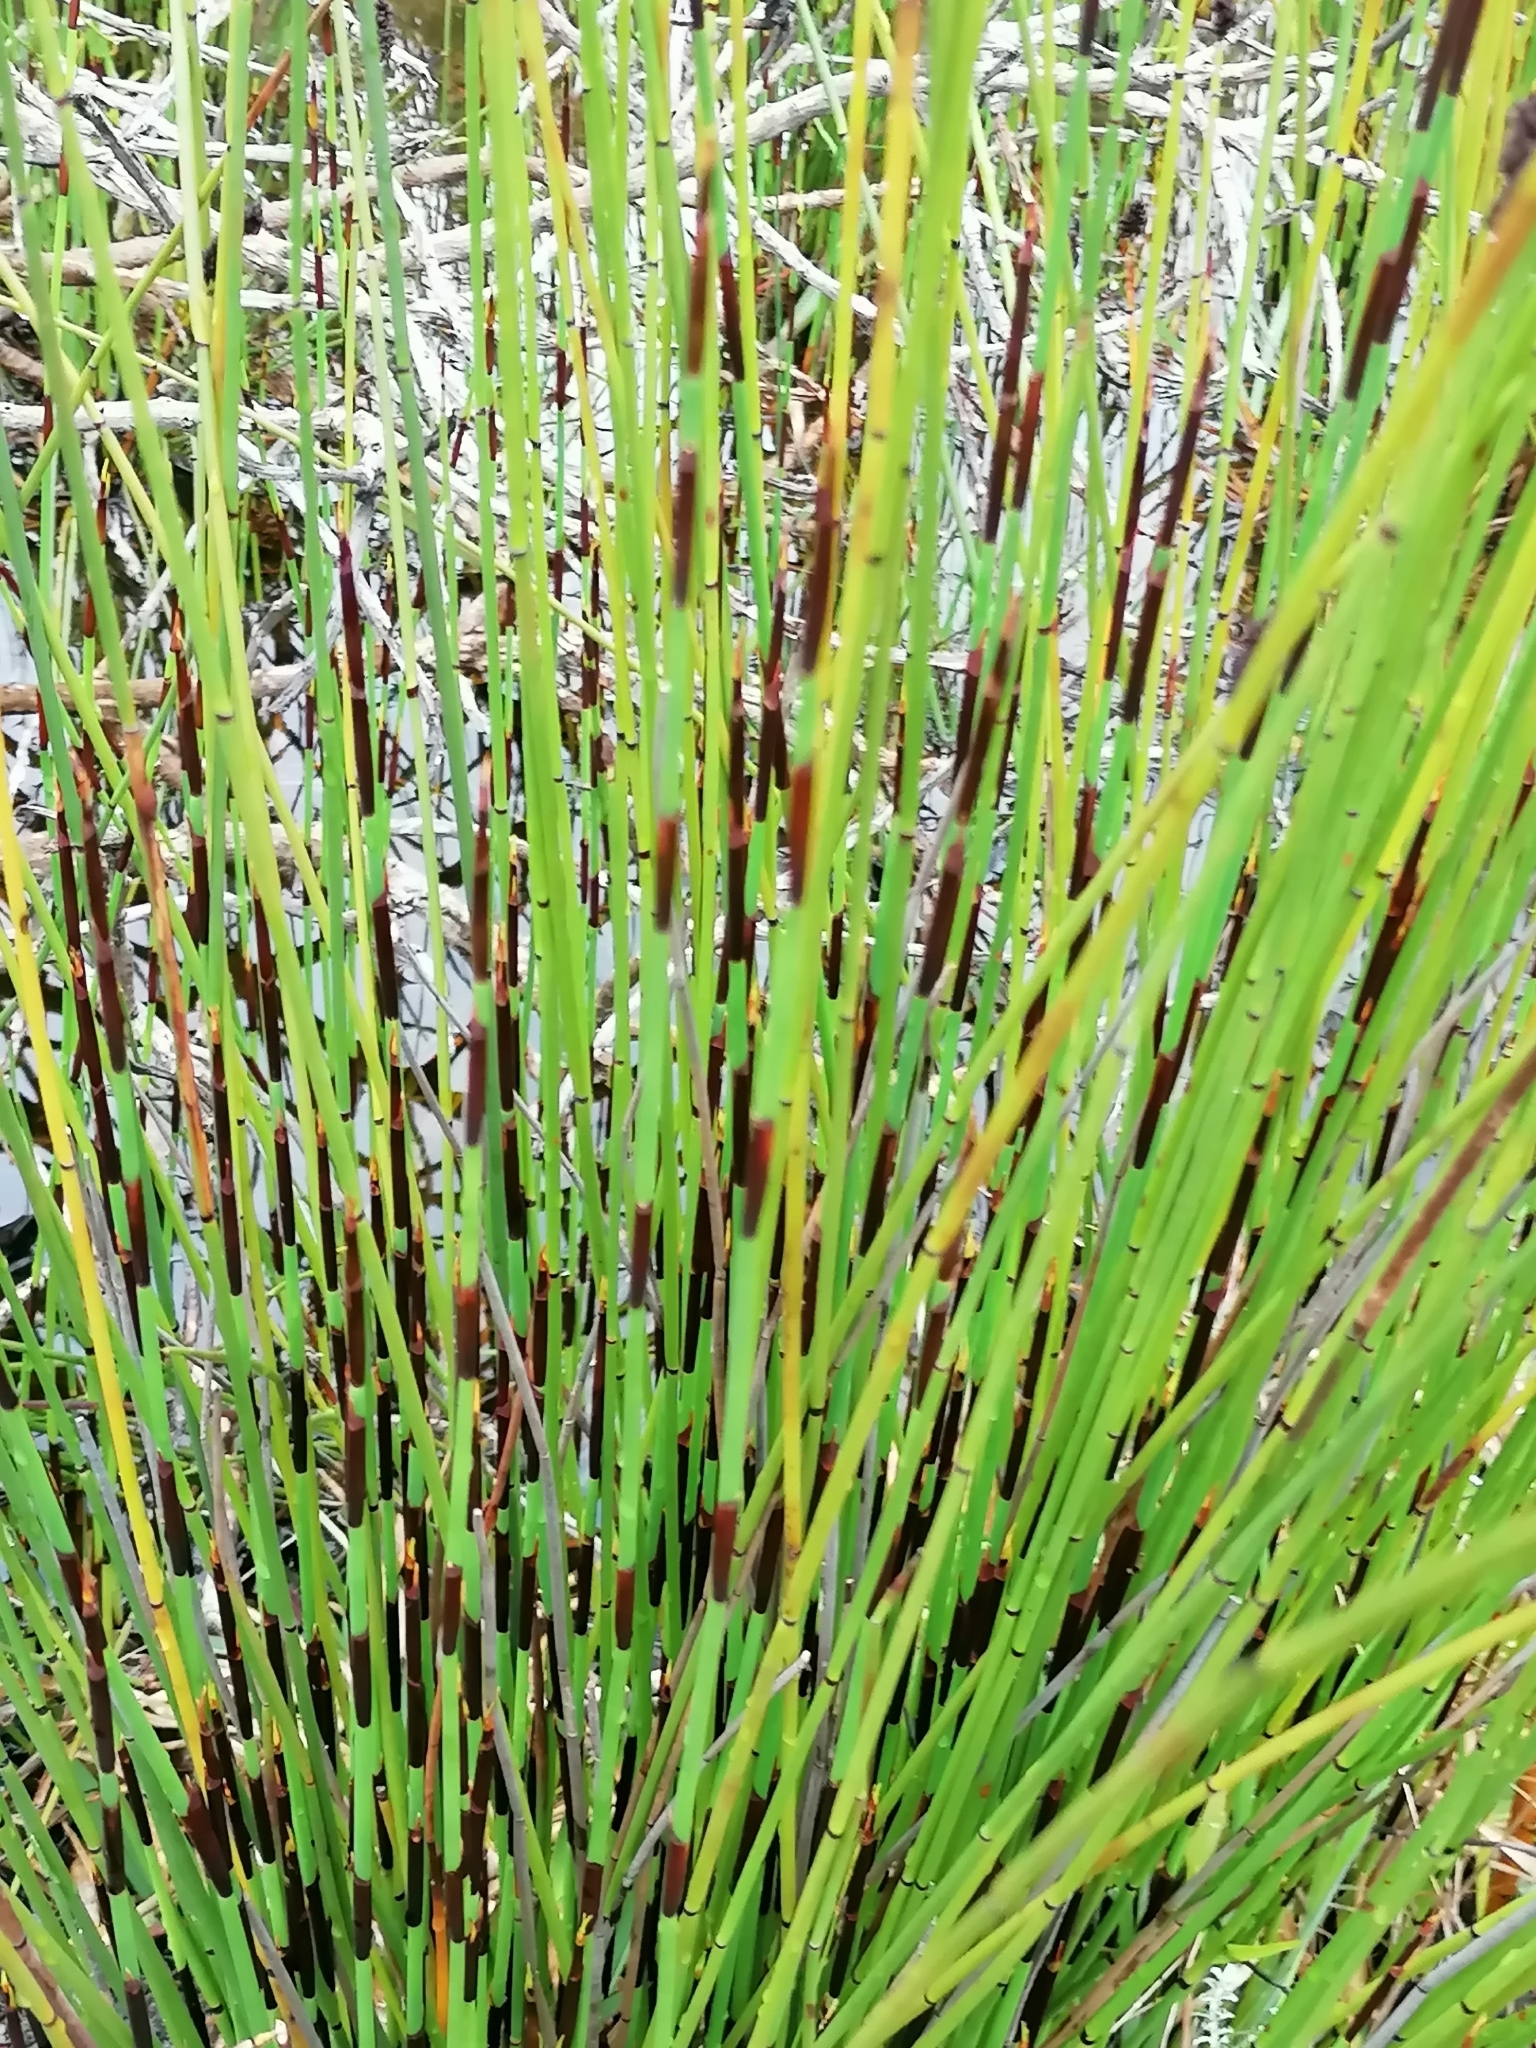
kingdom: Plantae
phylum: Tracheophyta
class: Liliopsida
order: Poales
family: Restionaceae
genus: Elegia
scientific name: Elegia tectorum
